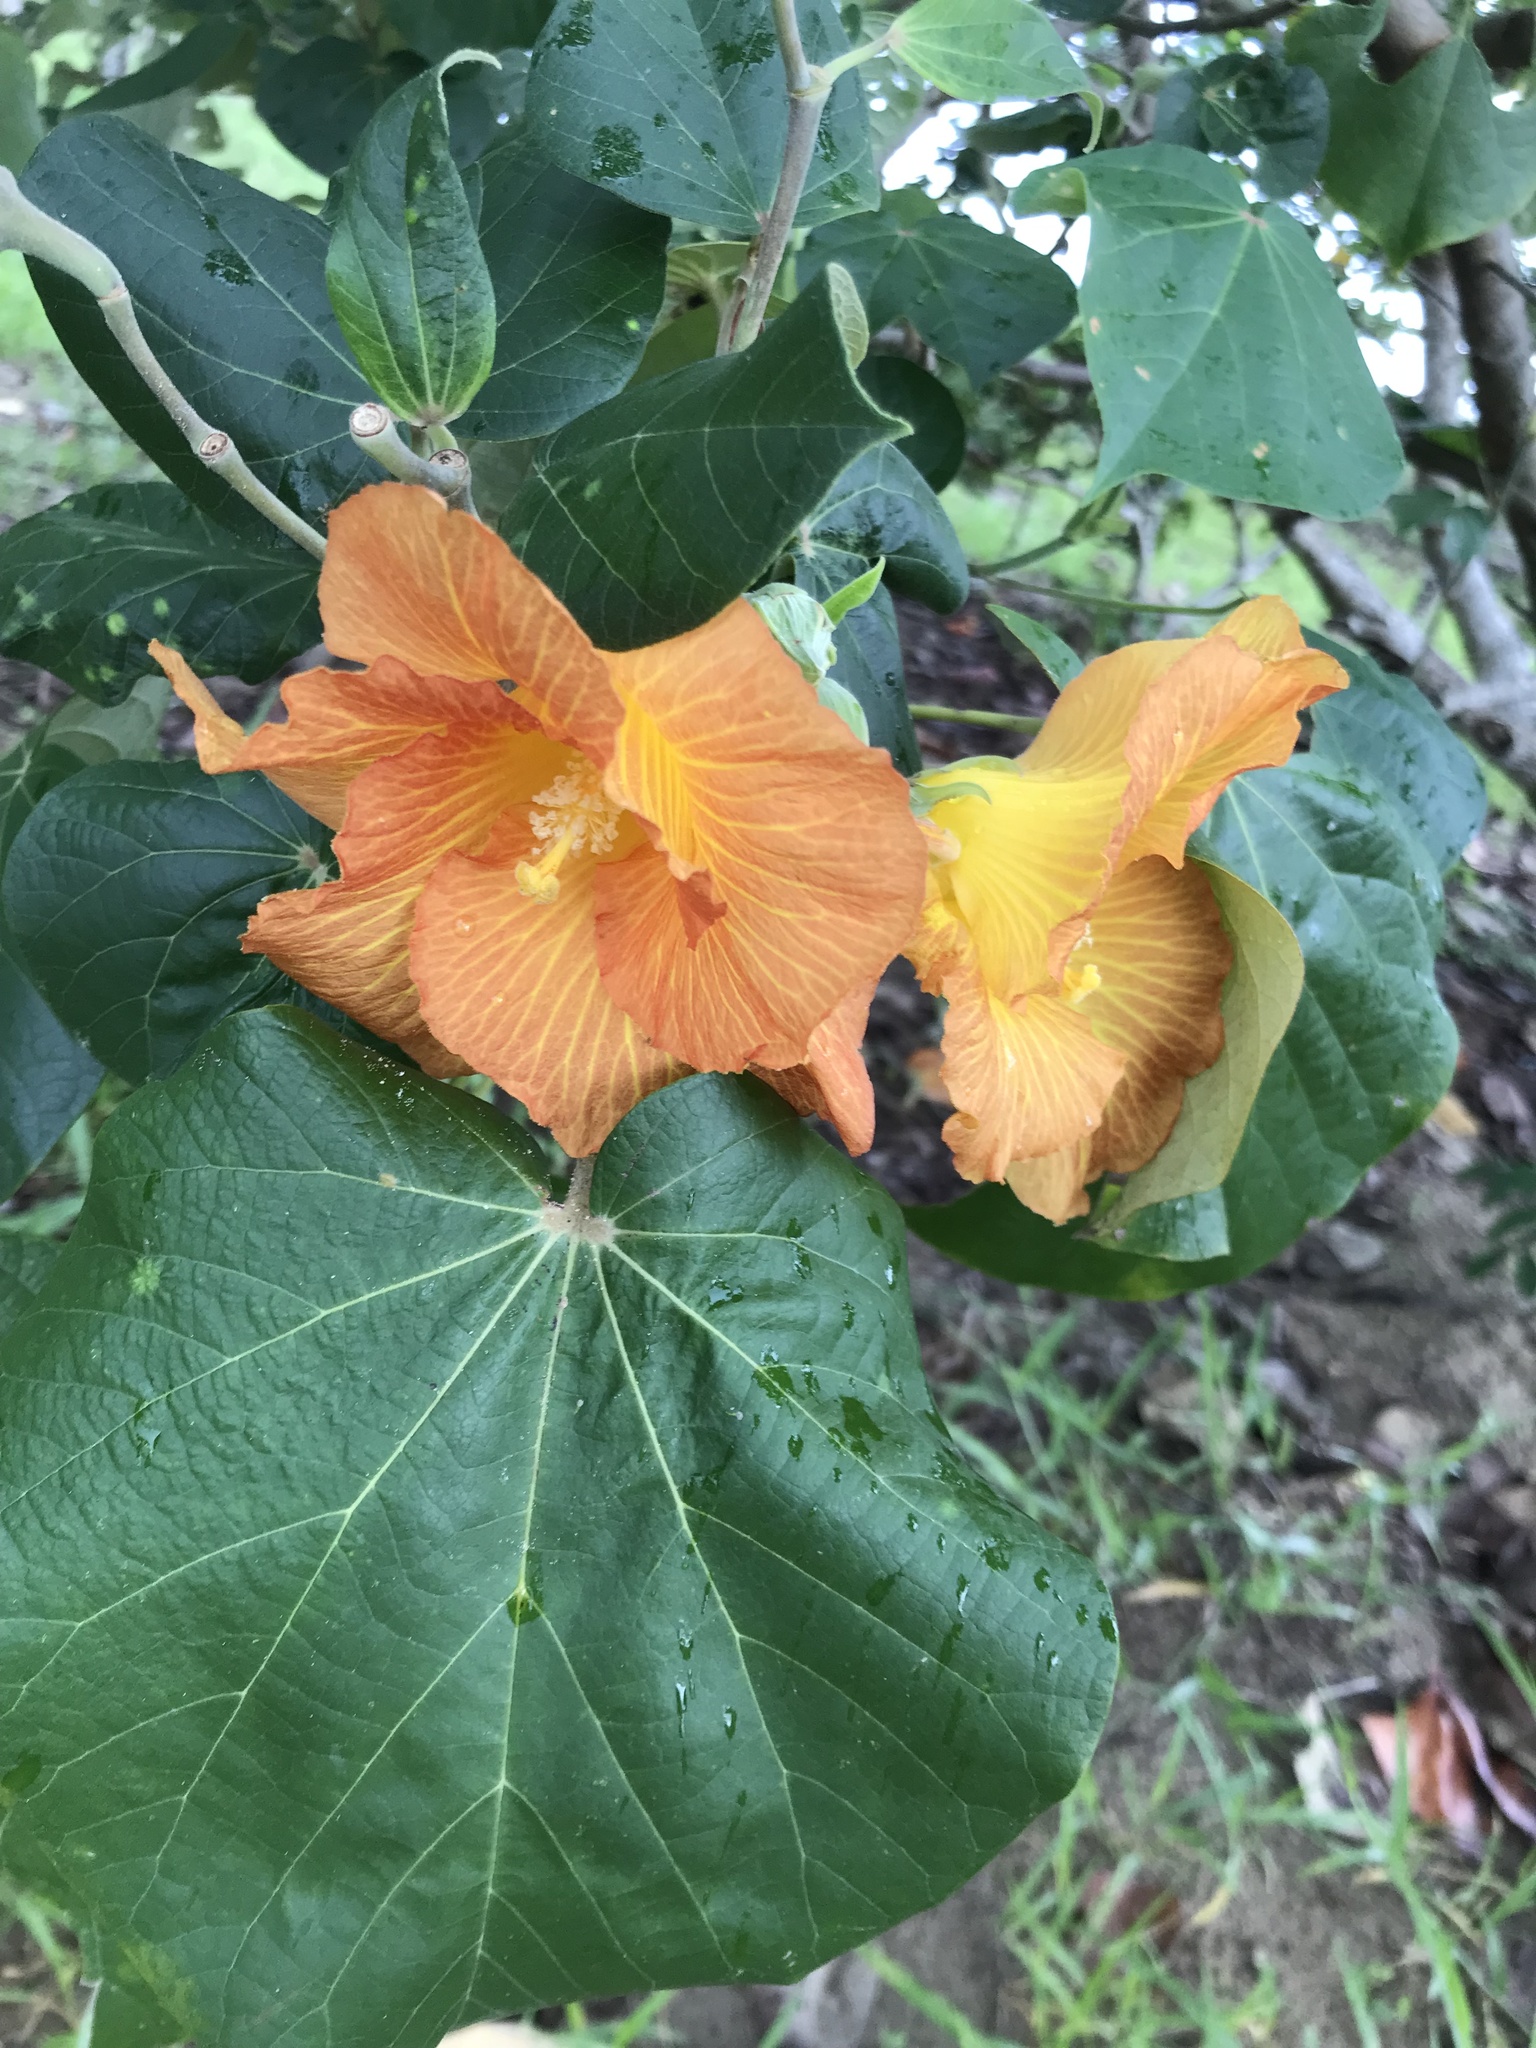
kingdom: Plantae
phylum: Tracheophyta
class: Magnoliopsida
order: Malvales
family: Malvaceae
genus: Talipariti
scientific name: Talipariti tiliaceum
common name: Sea hibiscus
